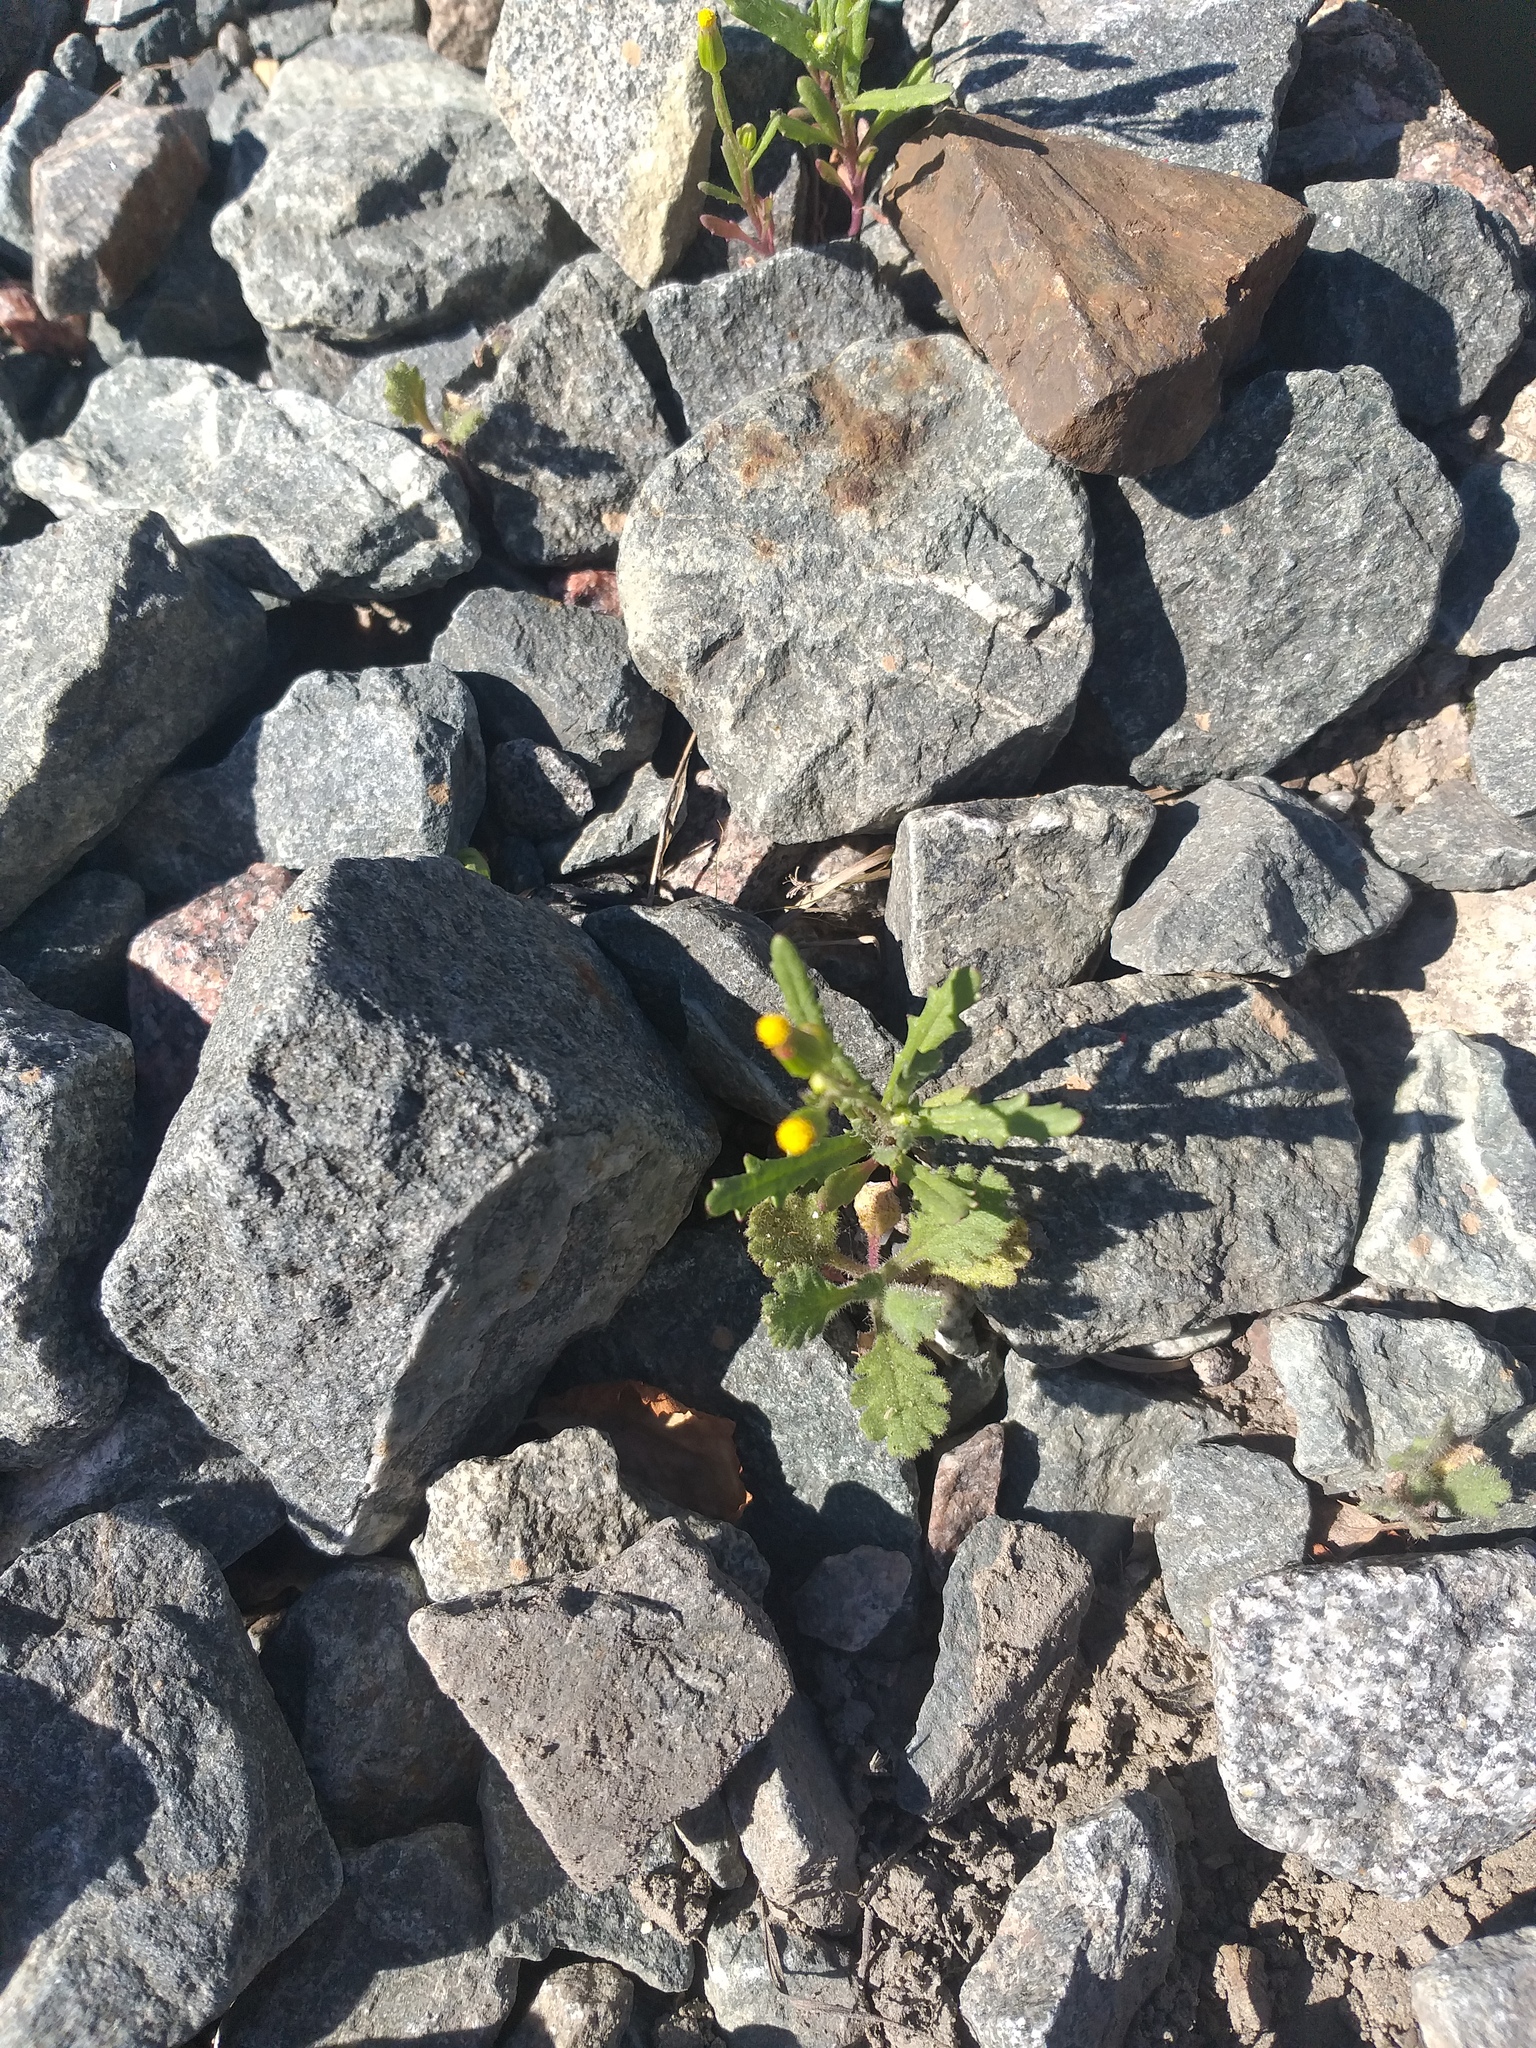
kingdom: Plantae
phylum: Tracheophyta
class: Magnoliopsida
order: Asterales
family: Asteraceae
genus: Senecio
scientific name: Senecio dubitabilis
